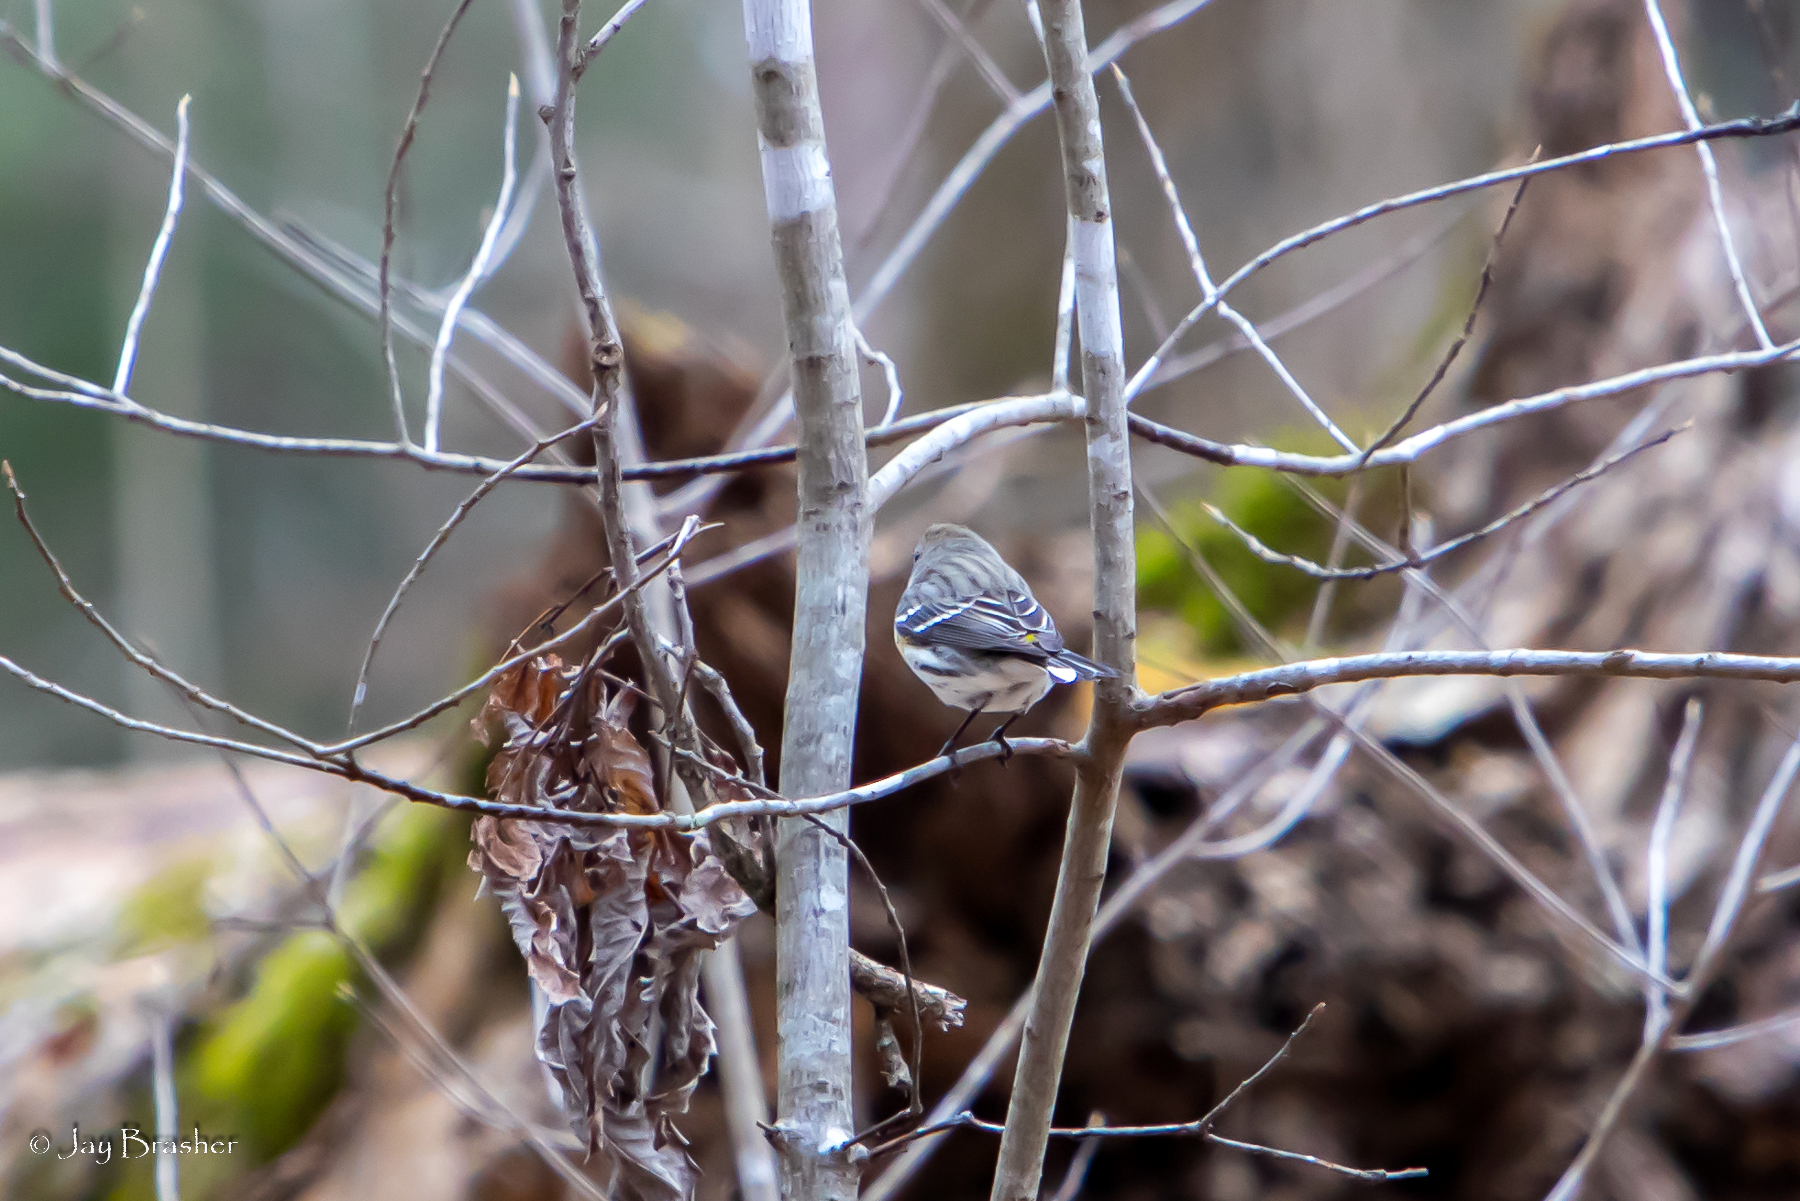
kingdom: Animalia
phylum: Chordata
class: Aves
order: Passeriformes
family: Parulidae
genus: Setophaga
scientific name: Setophaga coronata
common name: Myrtle warbler
